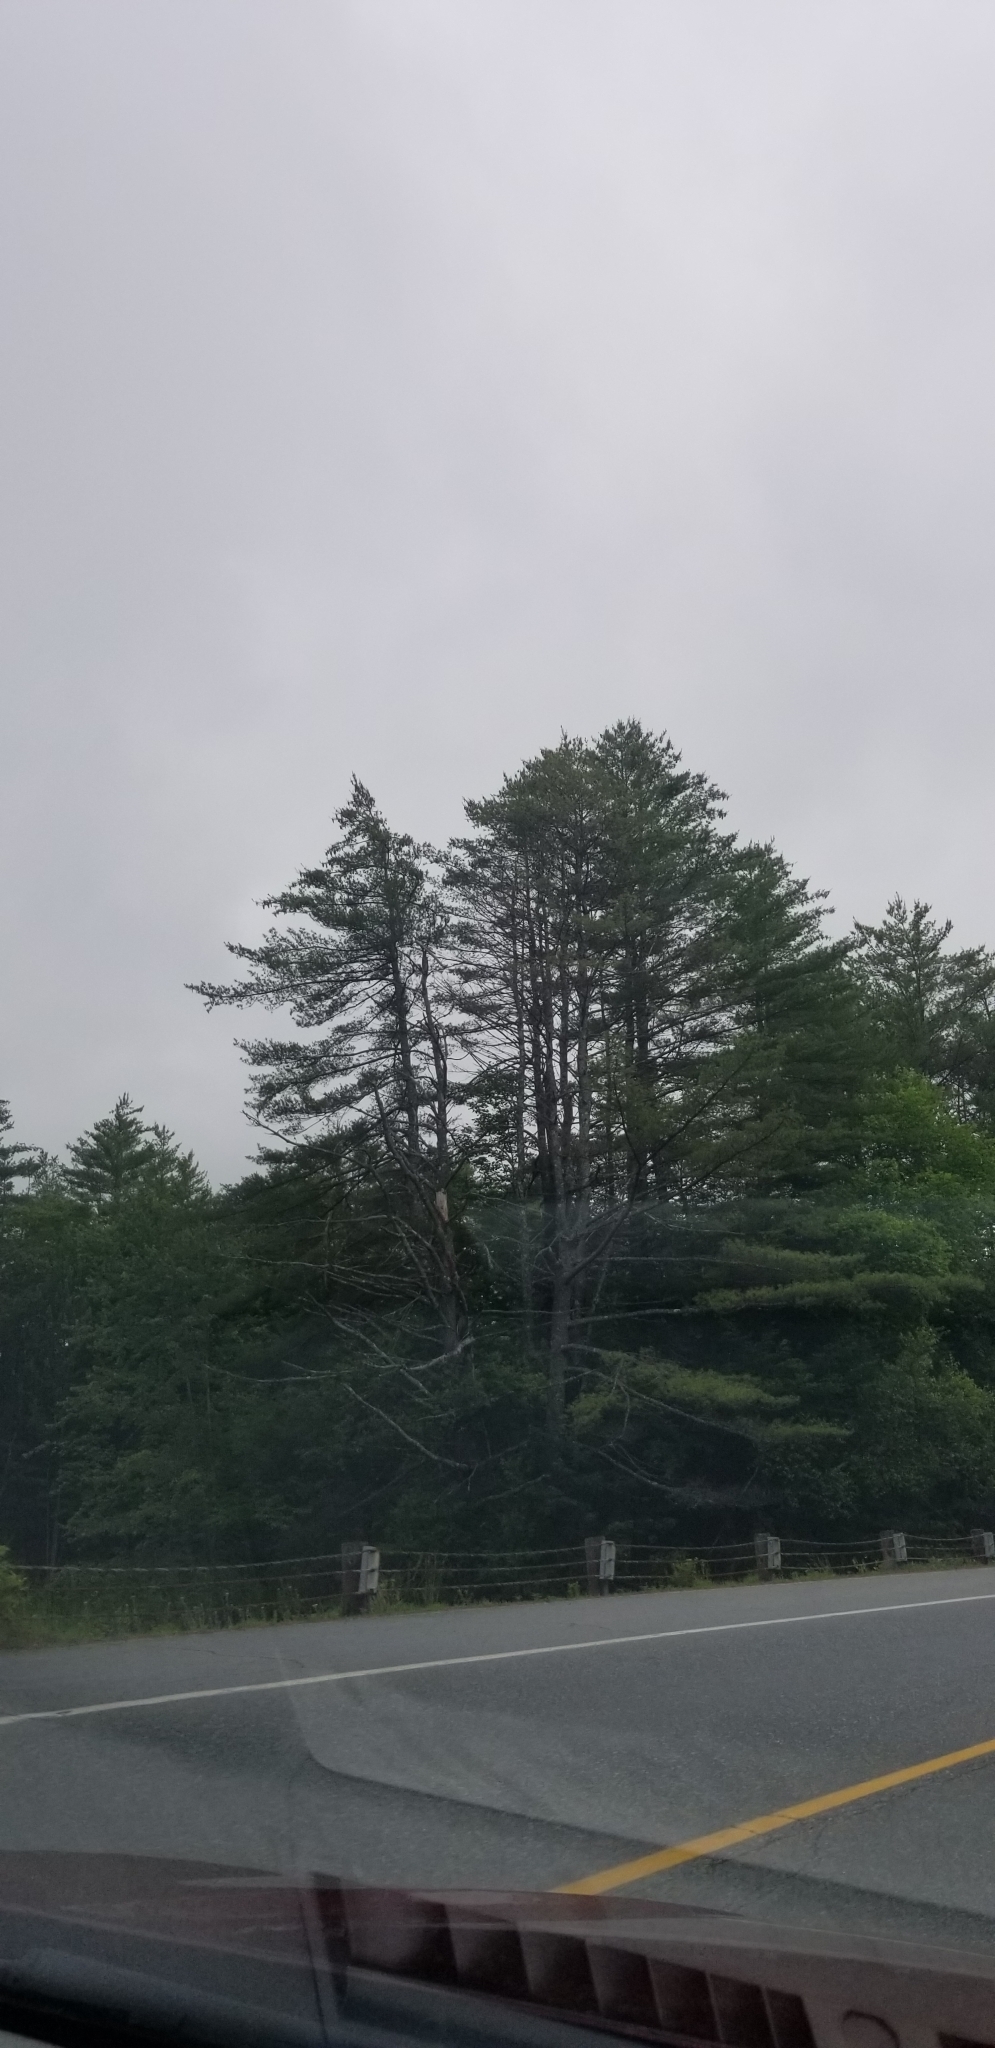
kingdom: Plantae
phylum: Tracheophyta
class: Pinopsida
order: Pinales
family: Pinaceae
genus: Pinus
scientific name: Pinus strobus
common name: Weymouth pine
